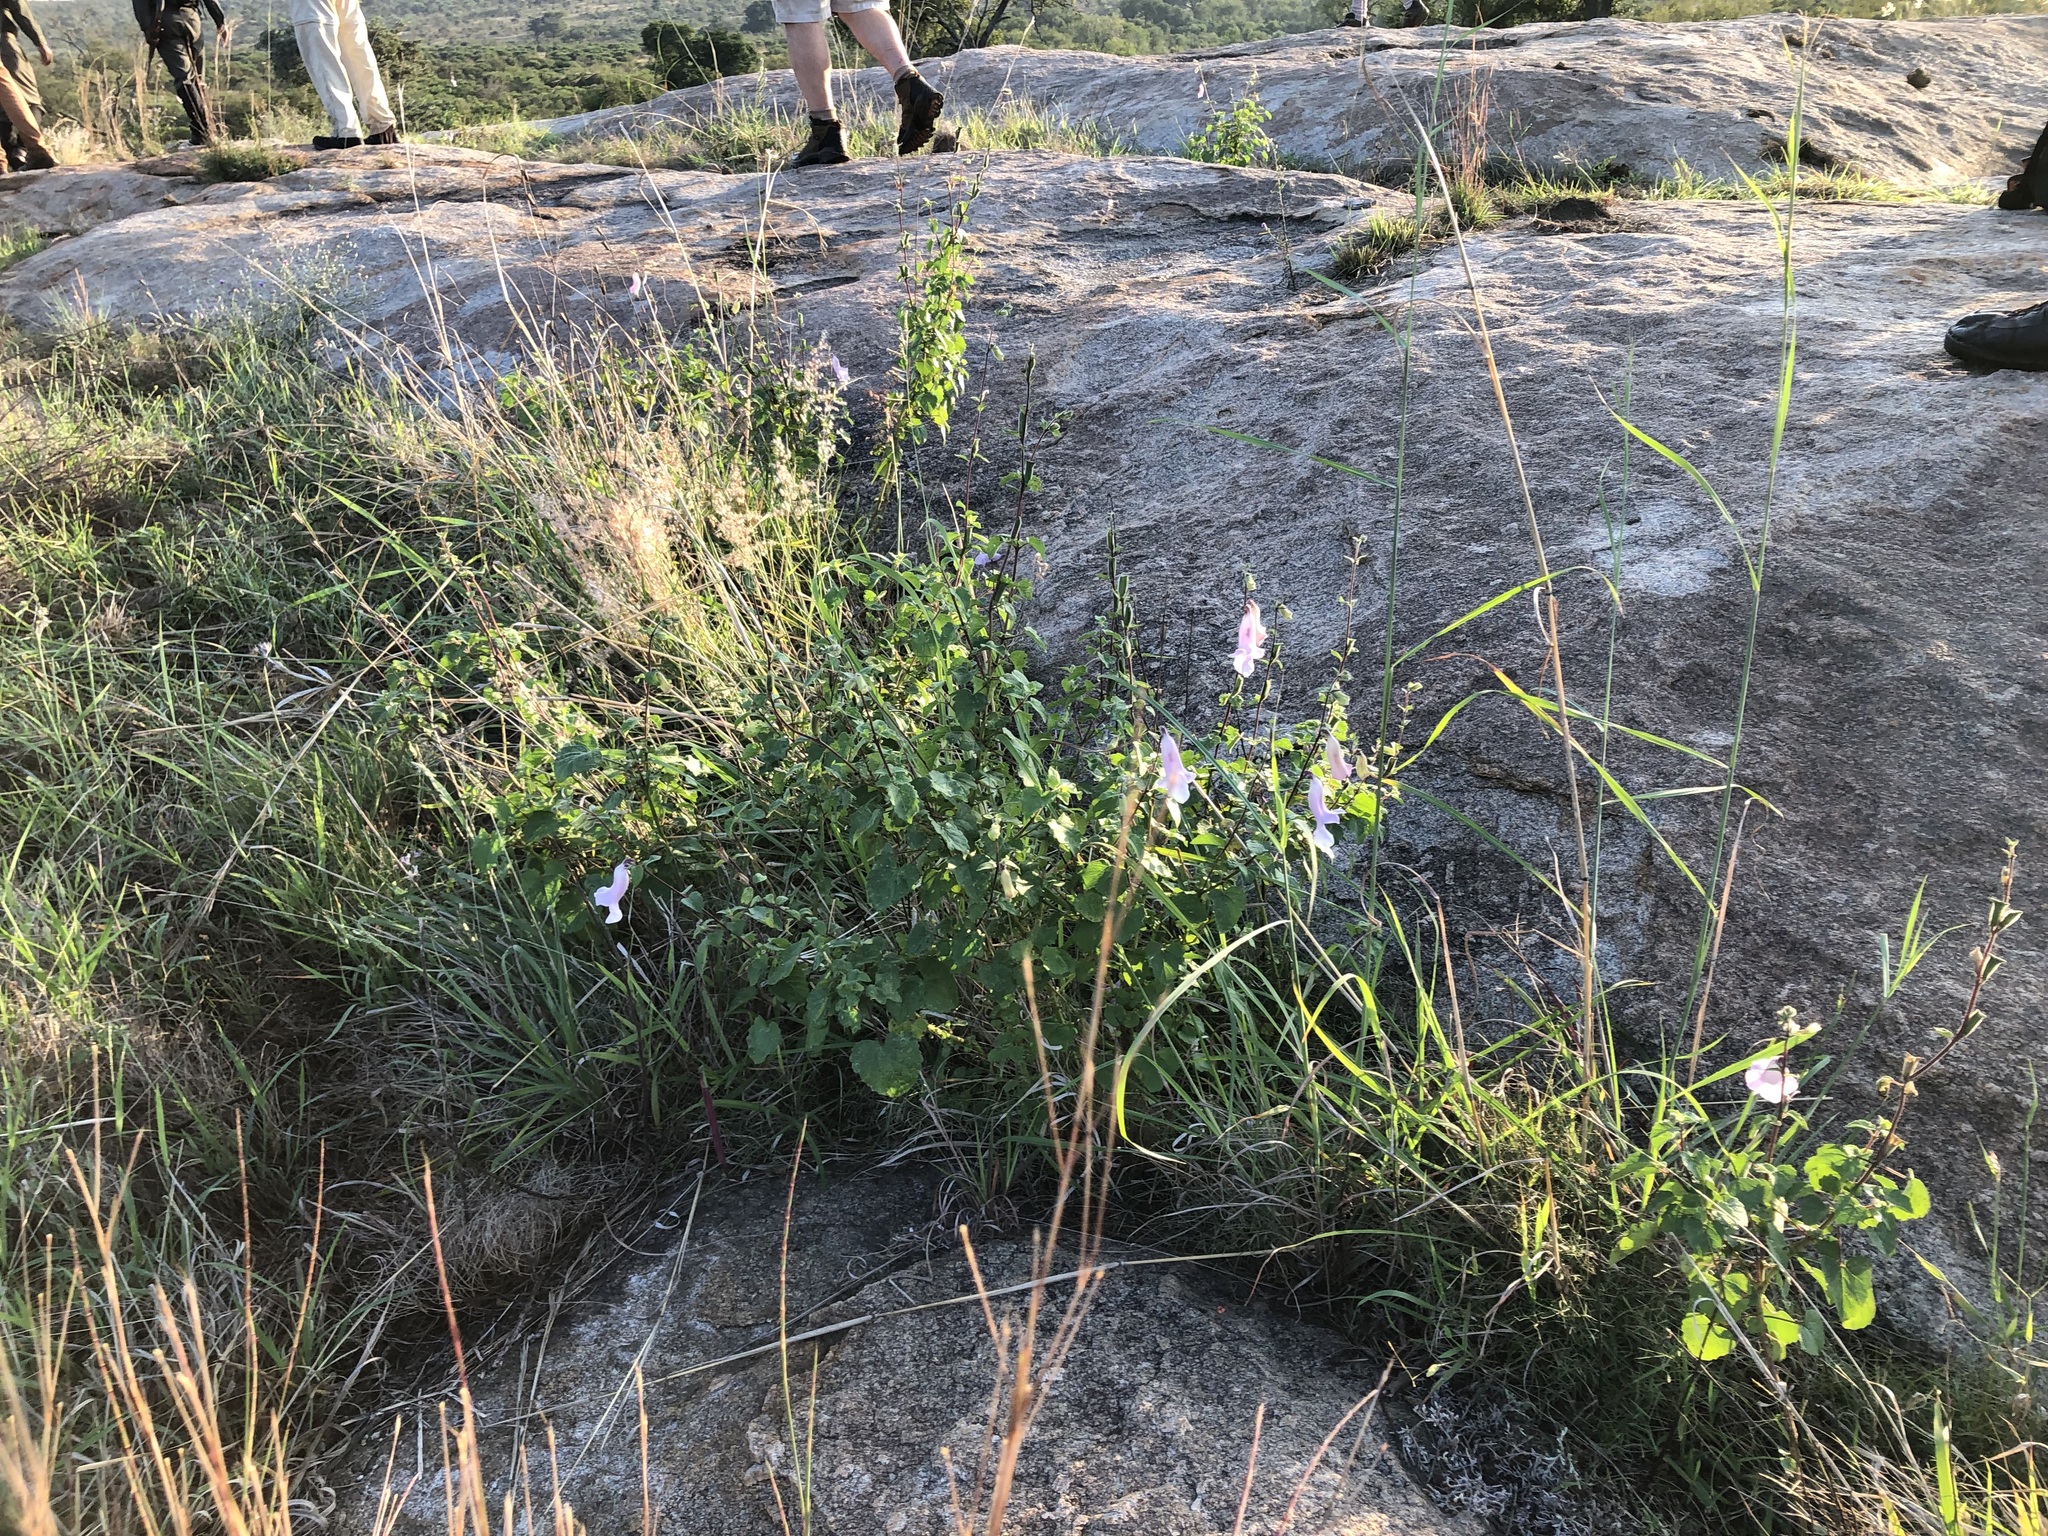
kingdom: Plantae
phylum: Tracheophyta
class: Magnoliopsida
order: Lamiales
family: Pedaliaceae
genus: Sesamum
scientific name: Sesamum trilobum
